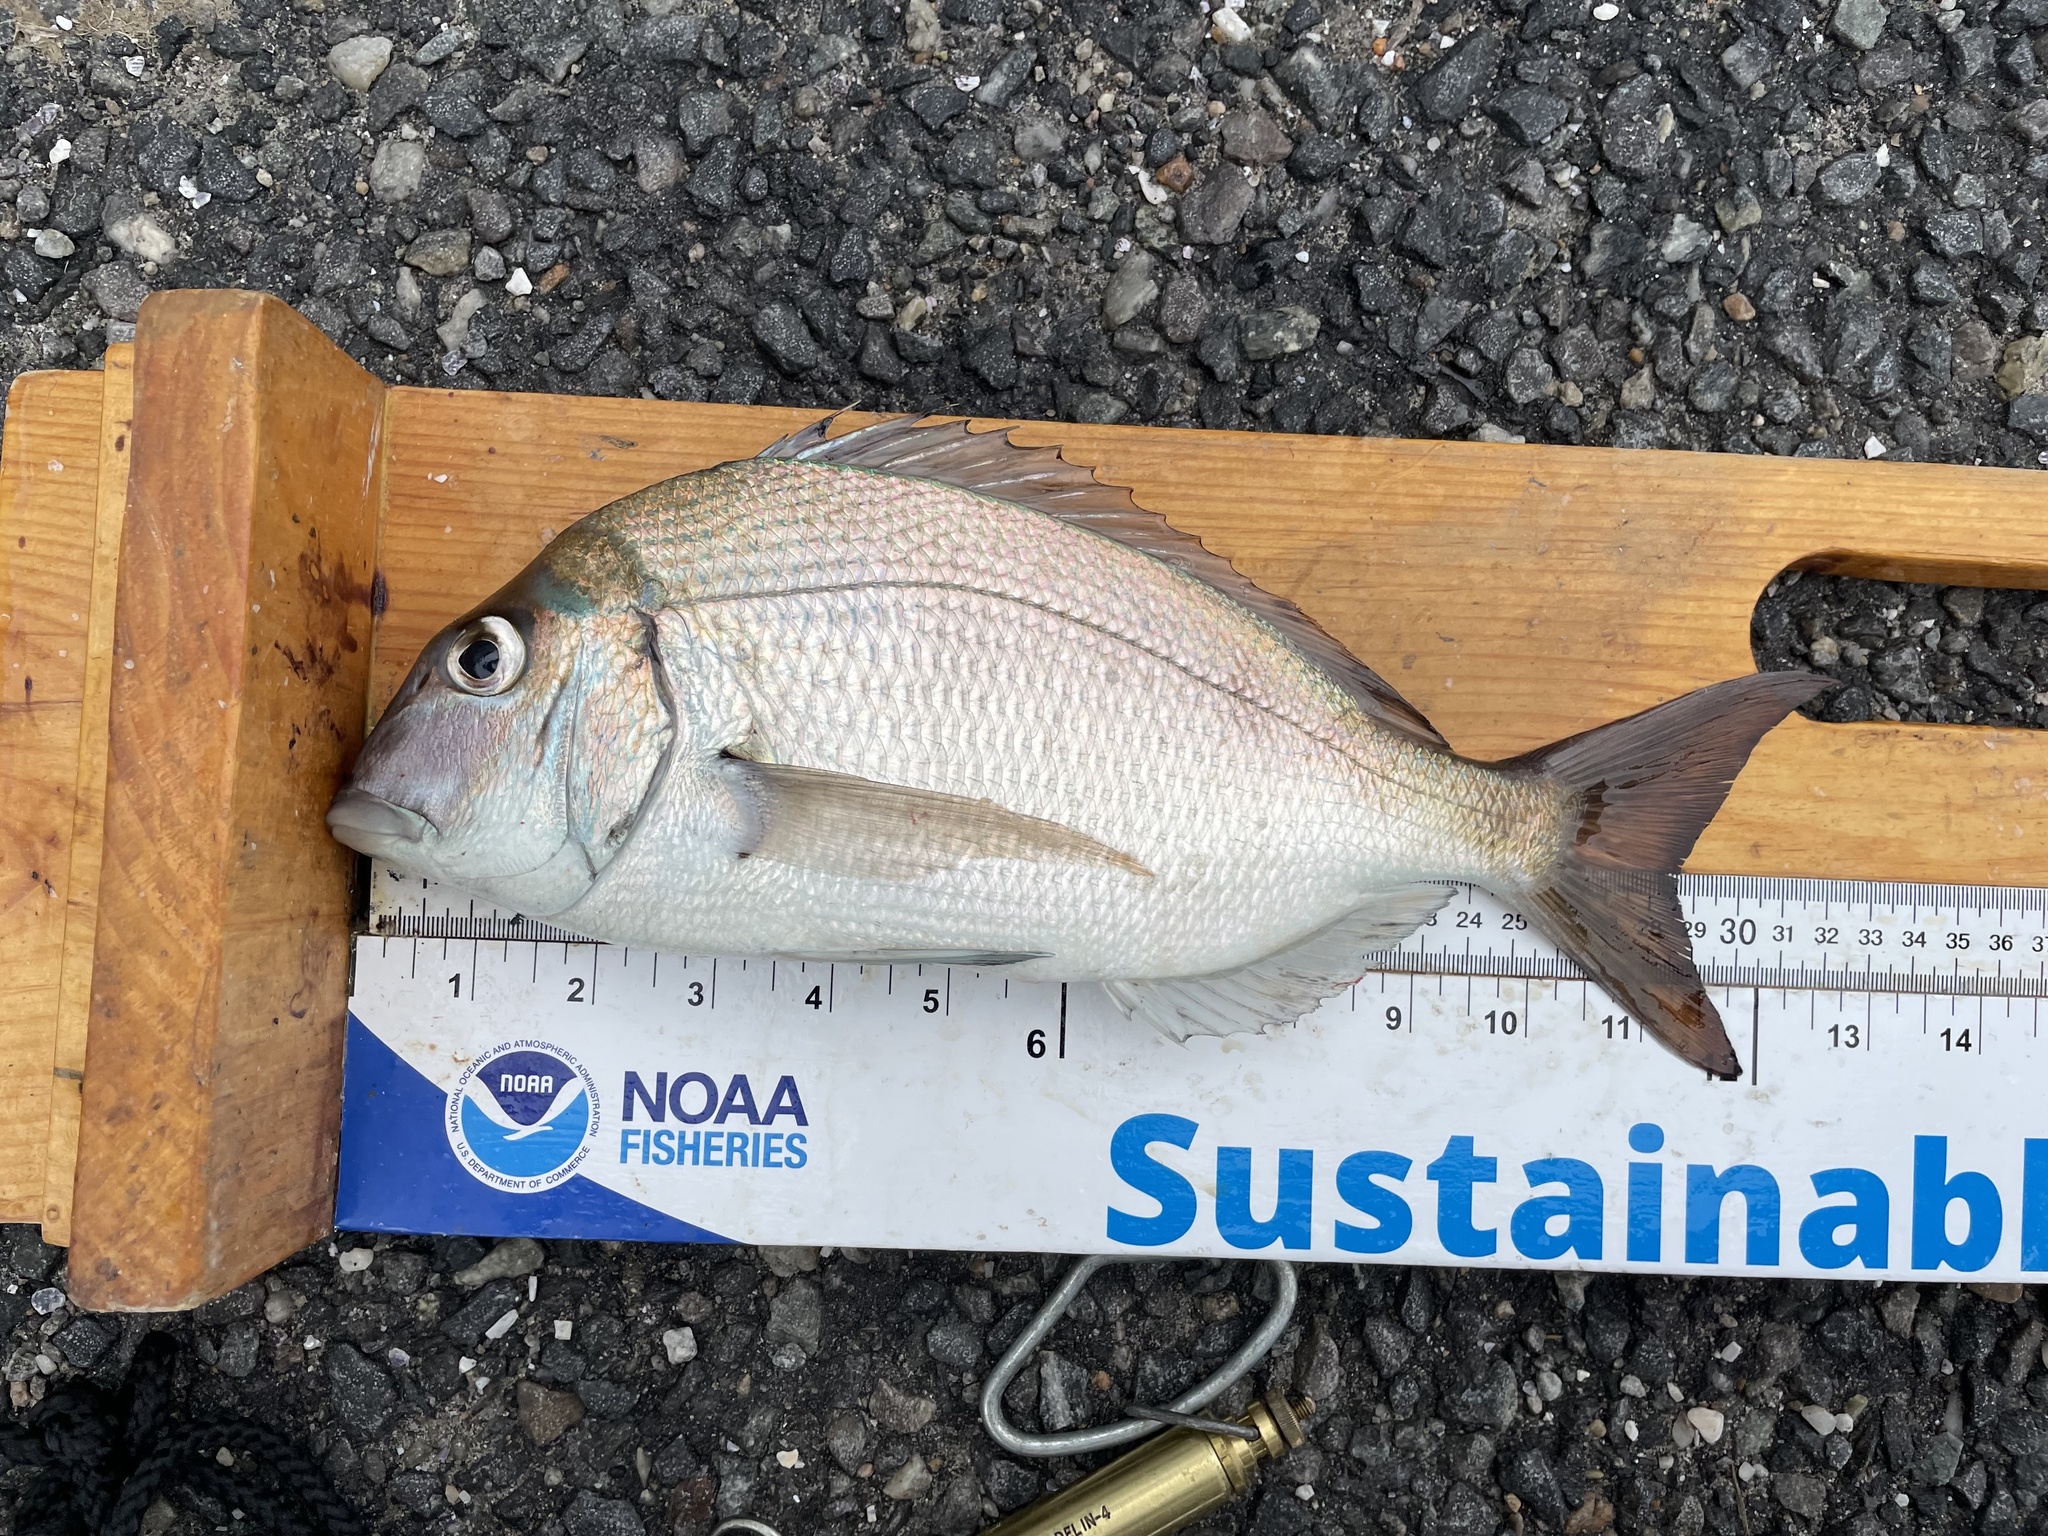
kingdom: Animalia
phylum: Chordata
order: Perciformes
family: Sparidae
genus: Stenotomus
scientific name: Stenotomus chrysops
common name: Scup
